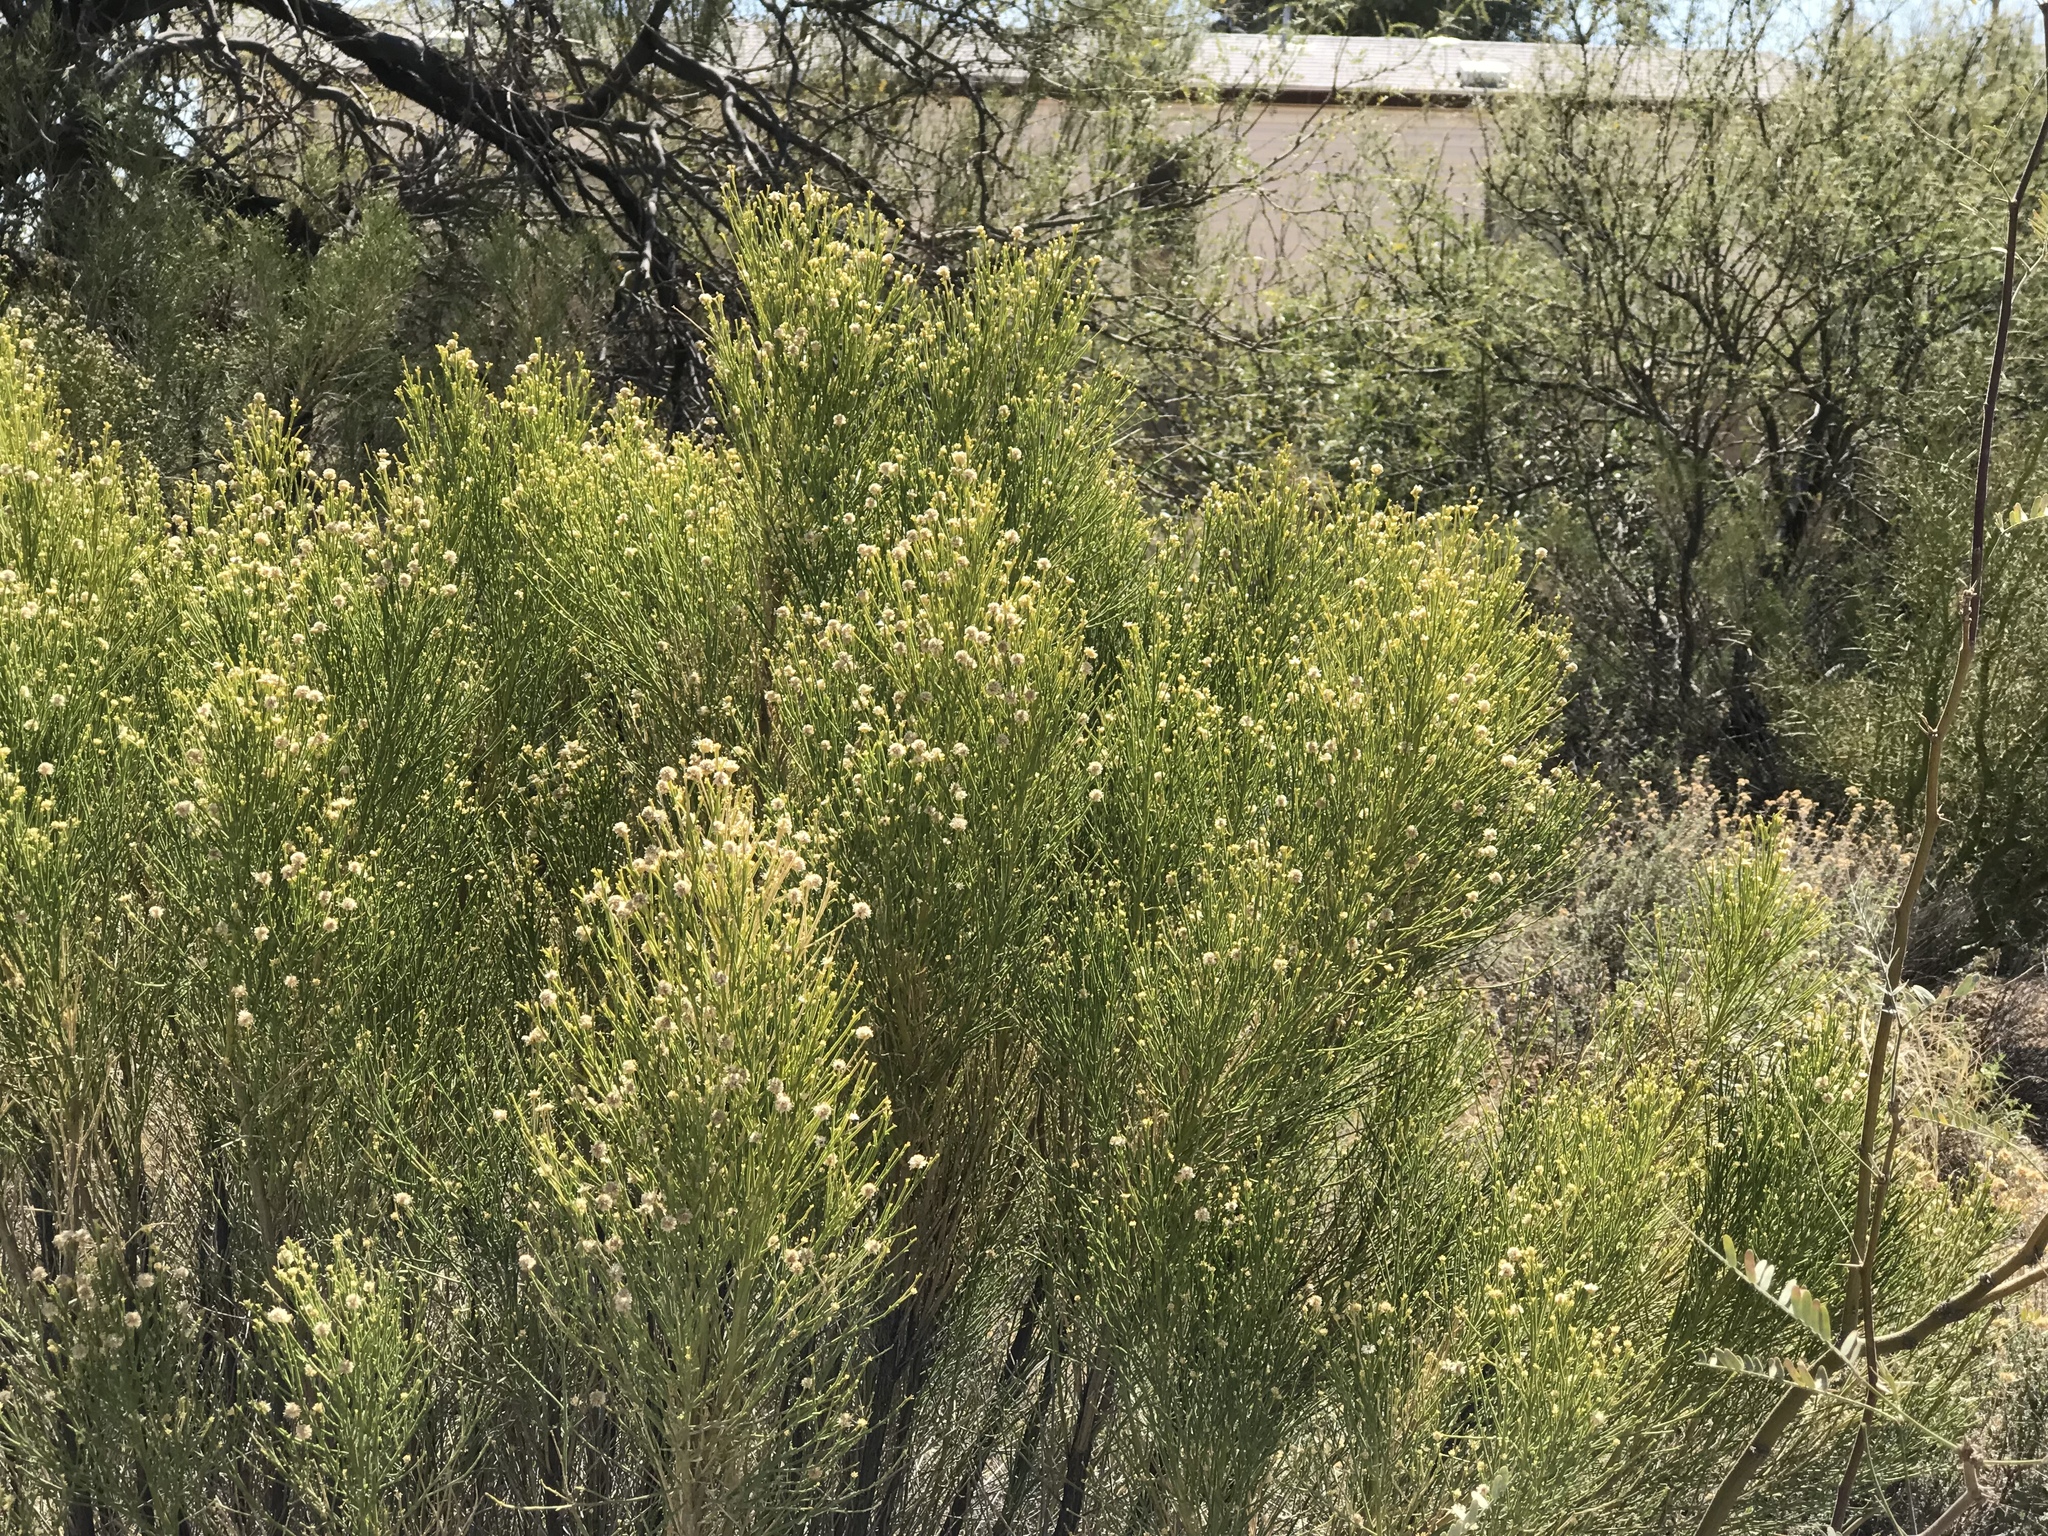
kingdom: Plantae
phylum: Tracheophyta
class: Magnoliopsida
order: Asterales
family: Asteraceae
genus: Baccharis
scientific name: Baccharis sarothroides
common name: Desert-broom
